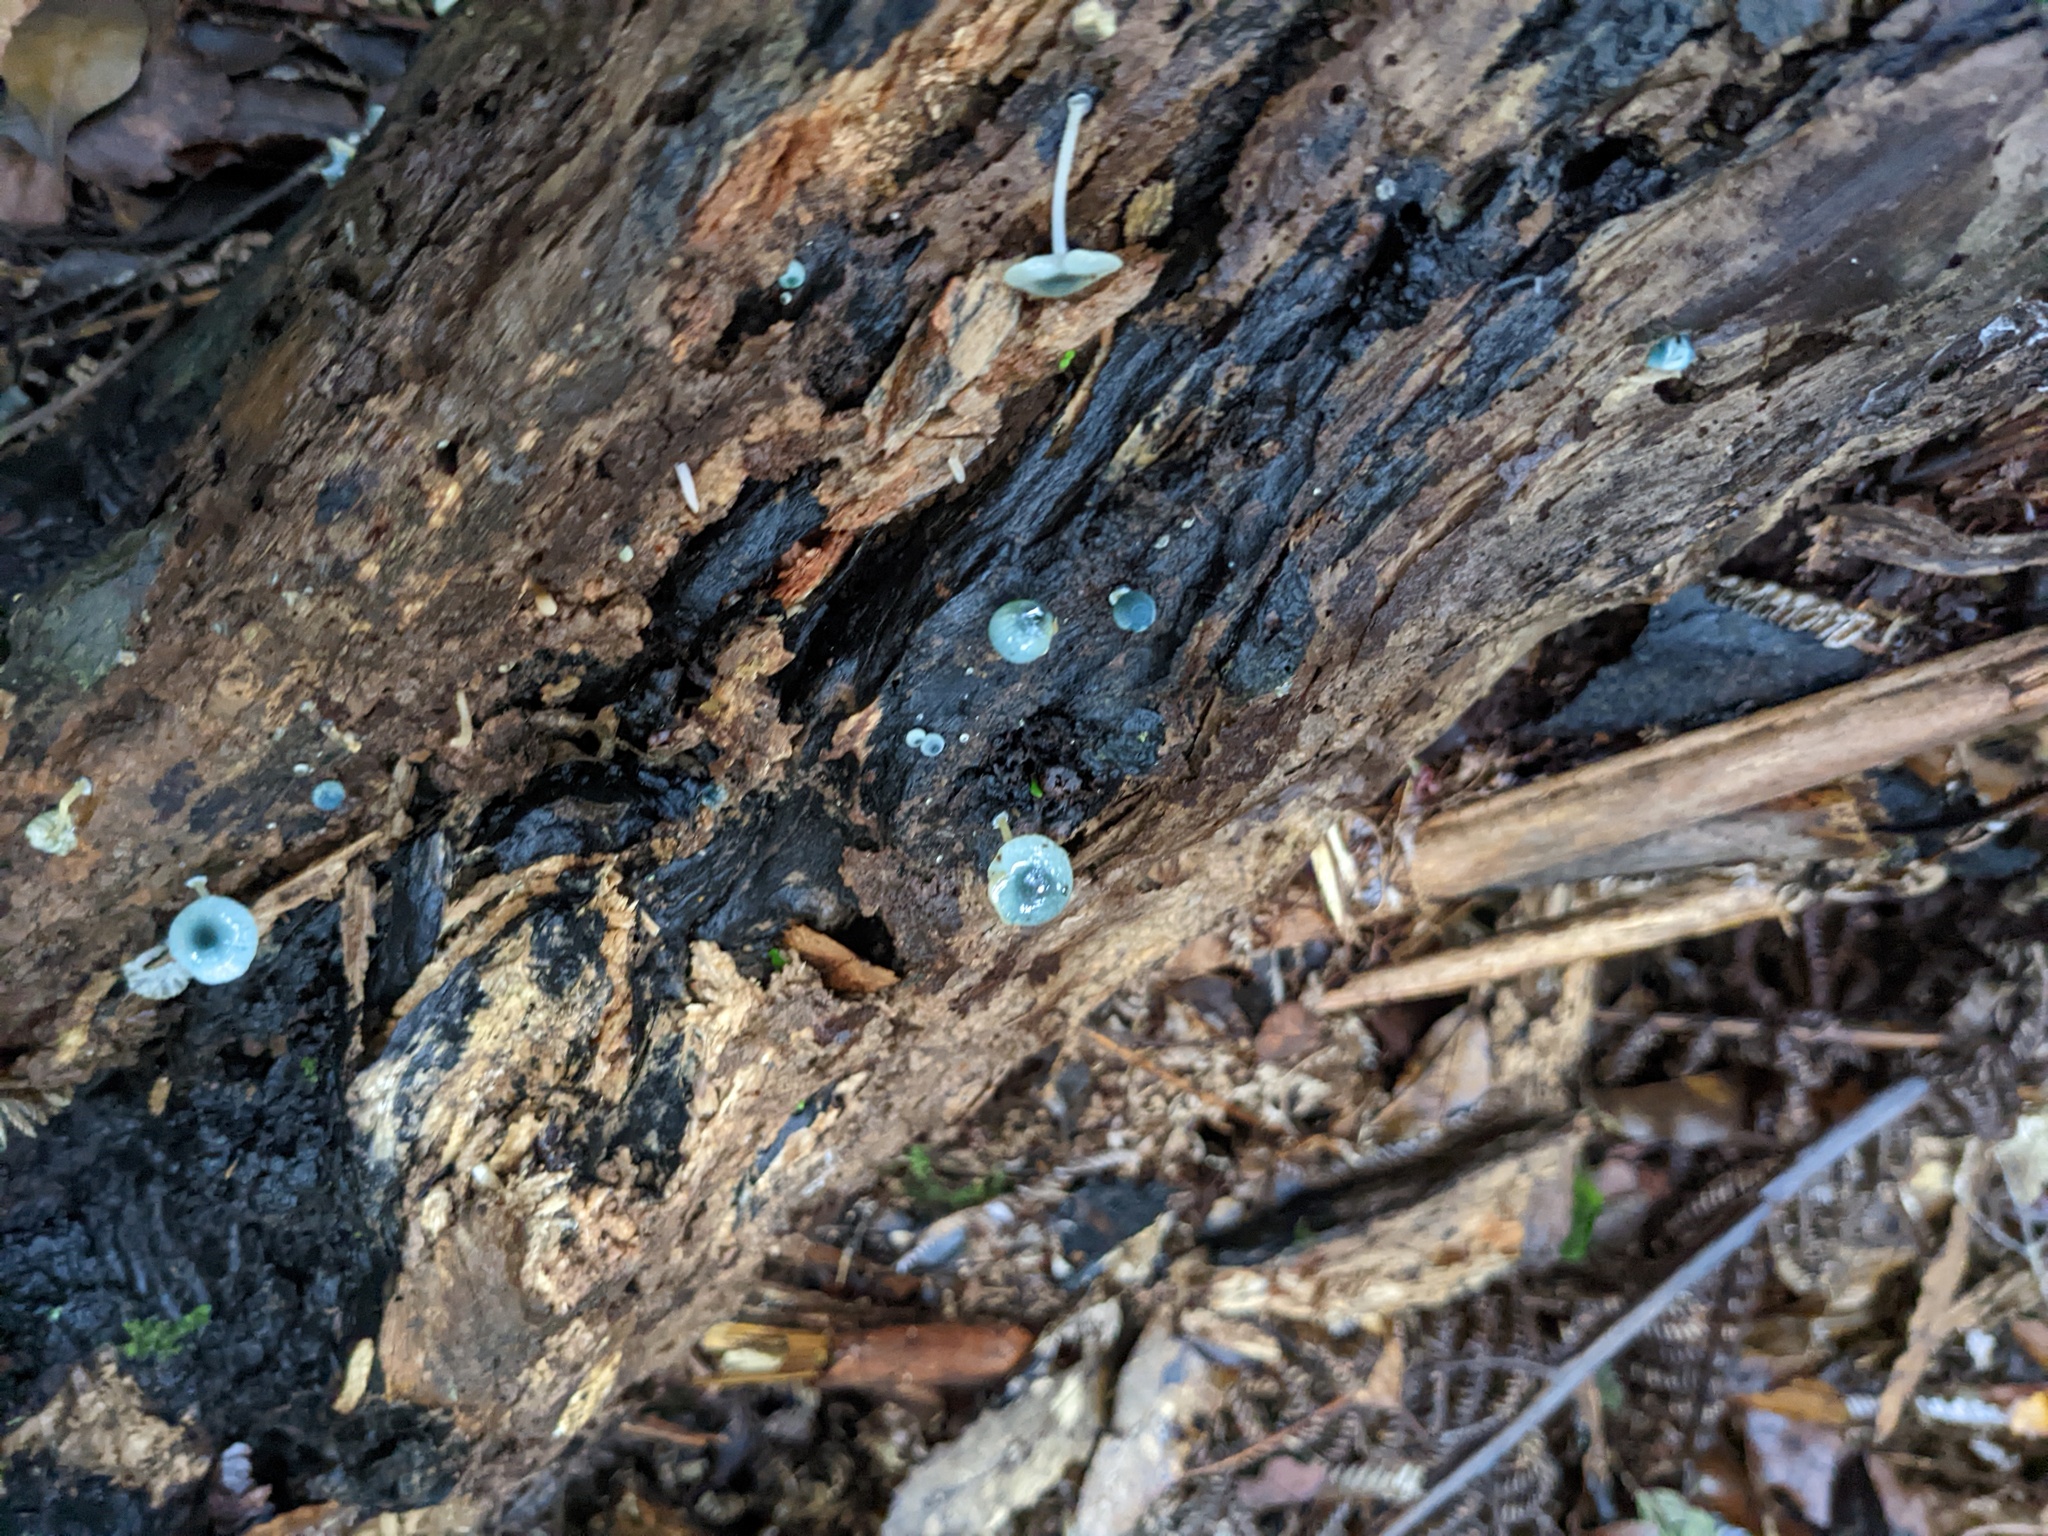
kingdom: Fungi
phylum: Basidiomycota
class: Agaricomycetes
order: Agaricales
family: Mycenaceae
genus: Mycena
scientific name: Mycena interrupta
